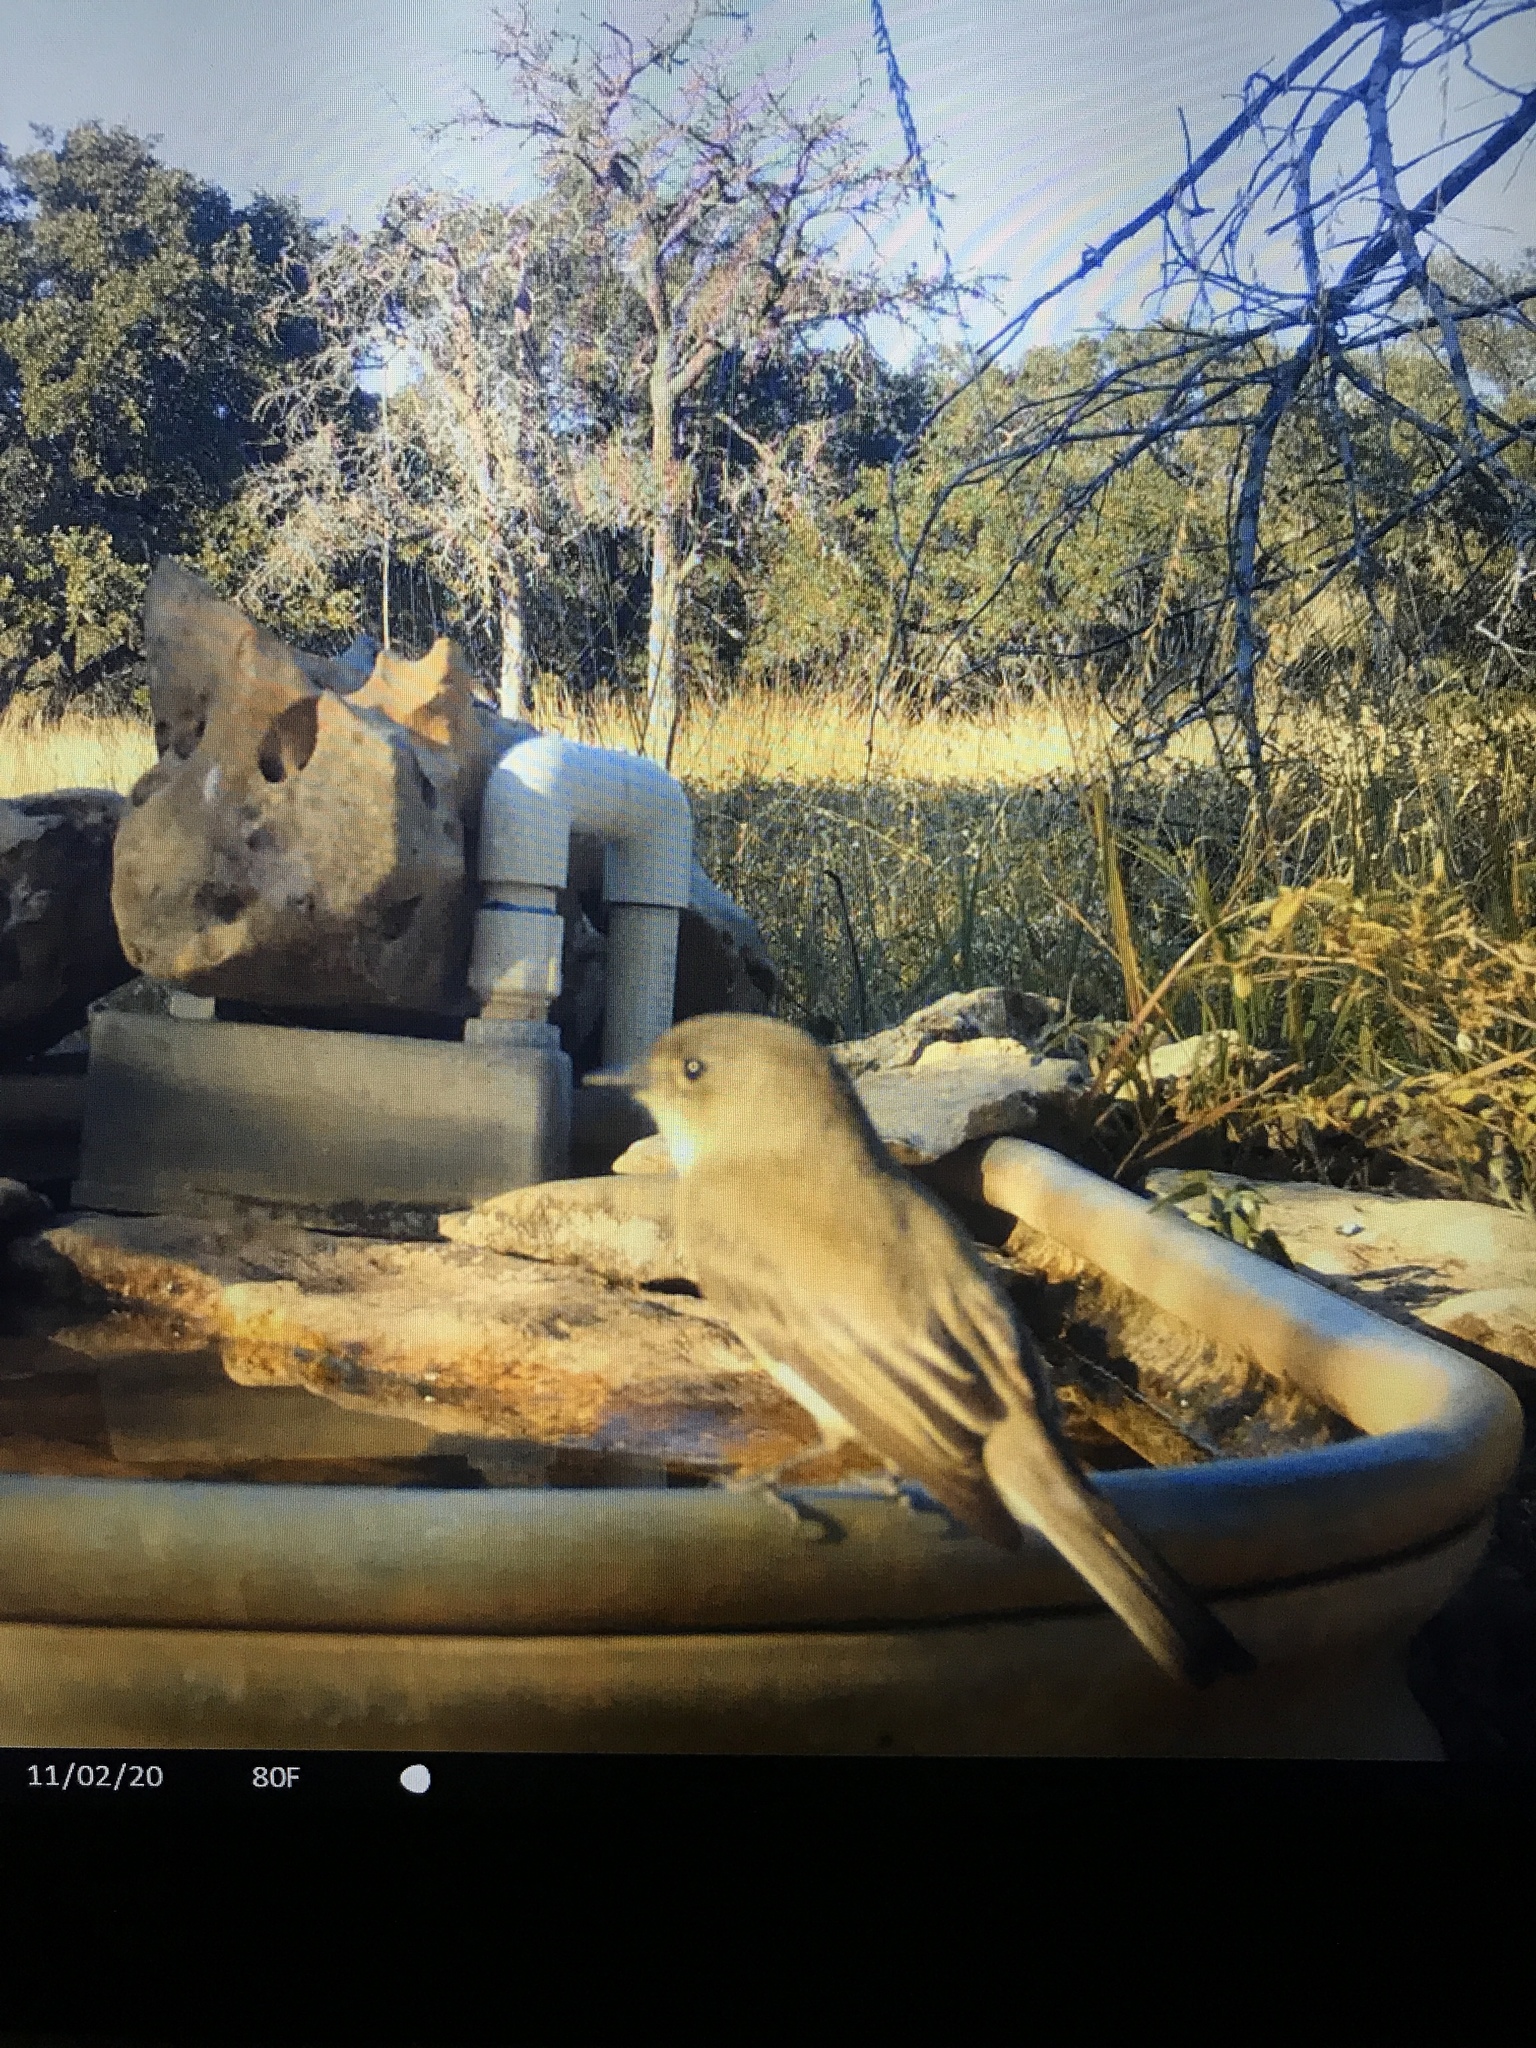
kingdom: Animalia
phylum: Chordata
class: Aves
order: Passeriformes
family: Tyrannidae
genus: Sayornis
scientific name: Sayornis phoebe
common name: Eastern phoebe
